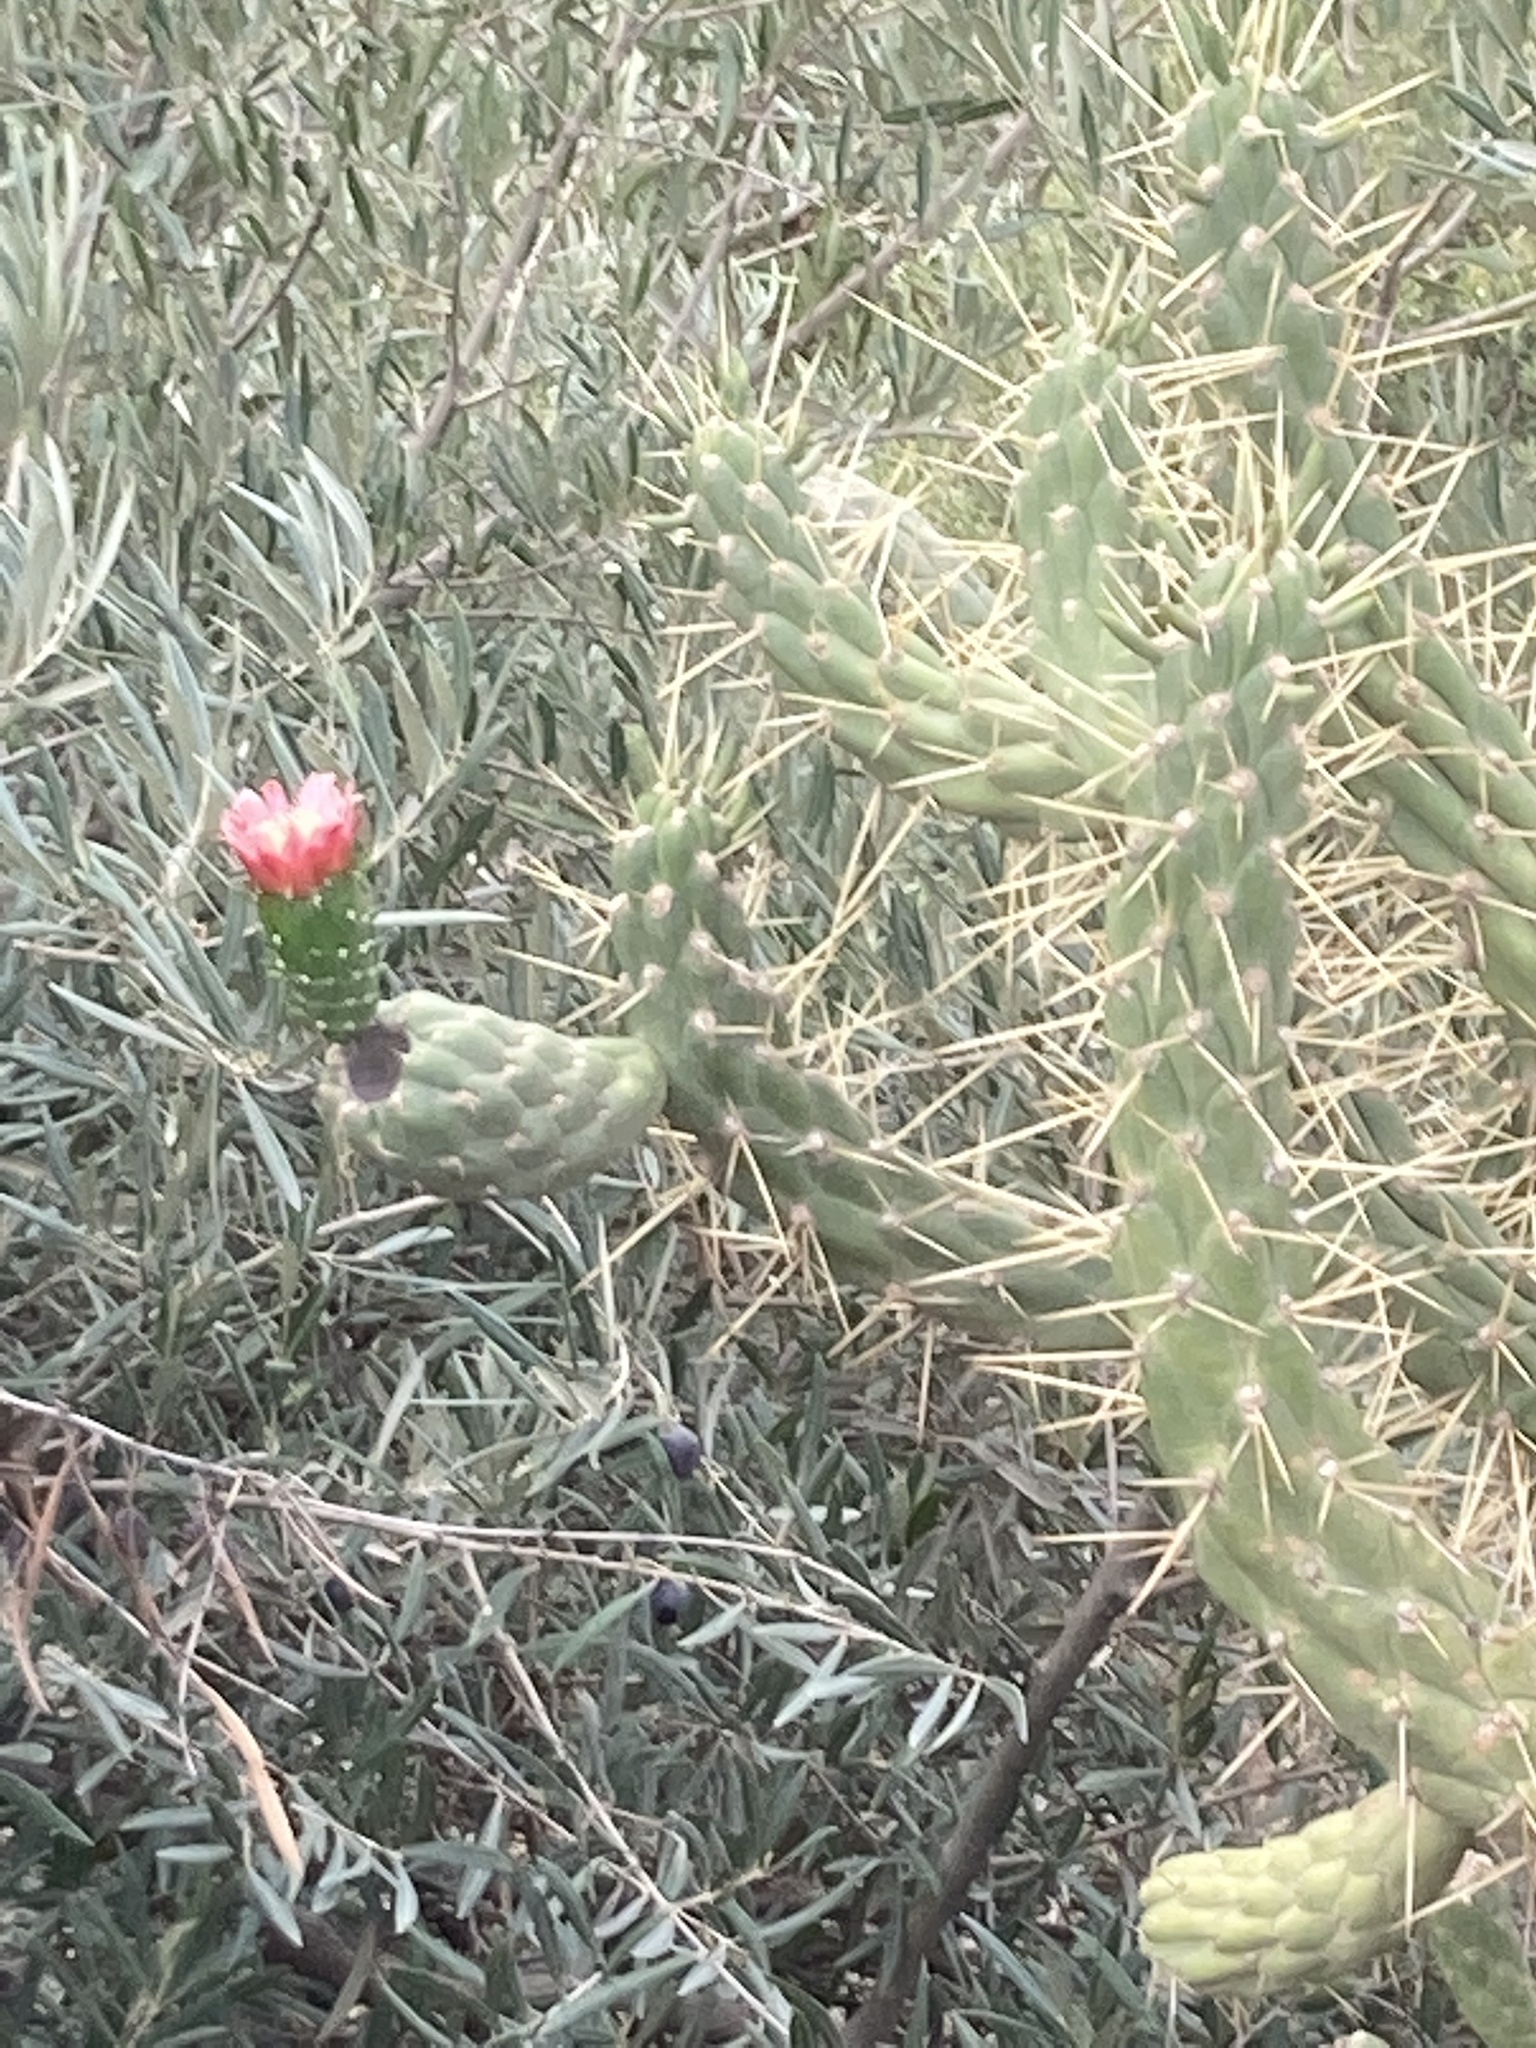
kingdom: Plantae
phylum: Tracheophyta
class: Magnoliopsida
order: Caryophyllales
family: Cactaceae
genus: Austrocylindropuntia
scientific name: Austrocylindropuntia subulata
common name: Eve's needle cactus
